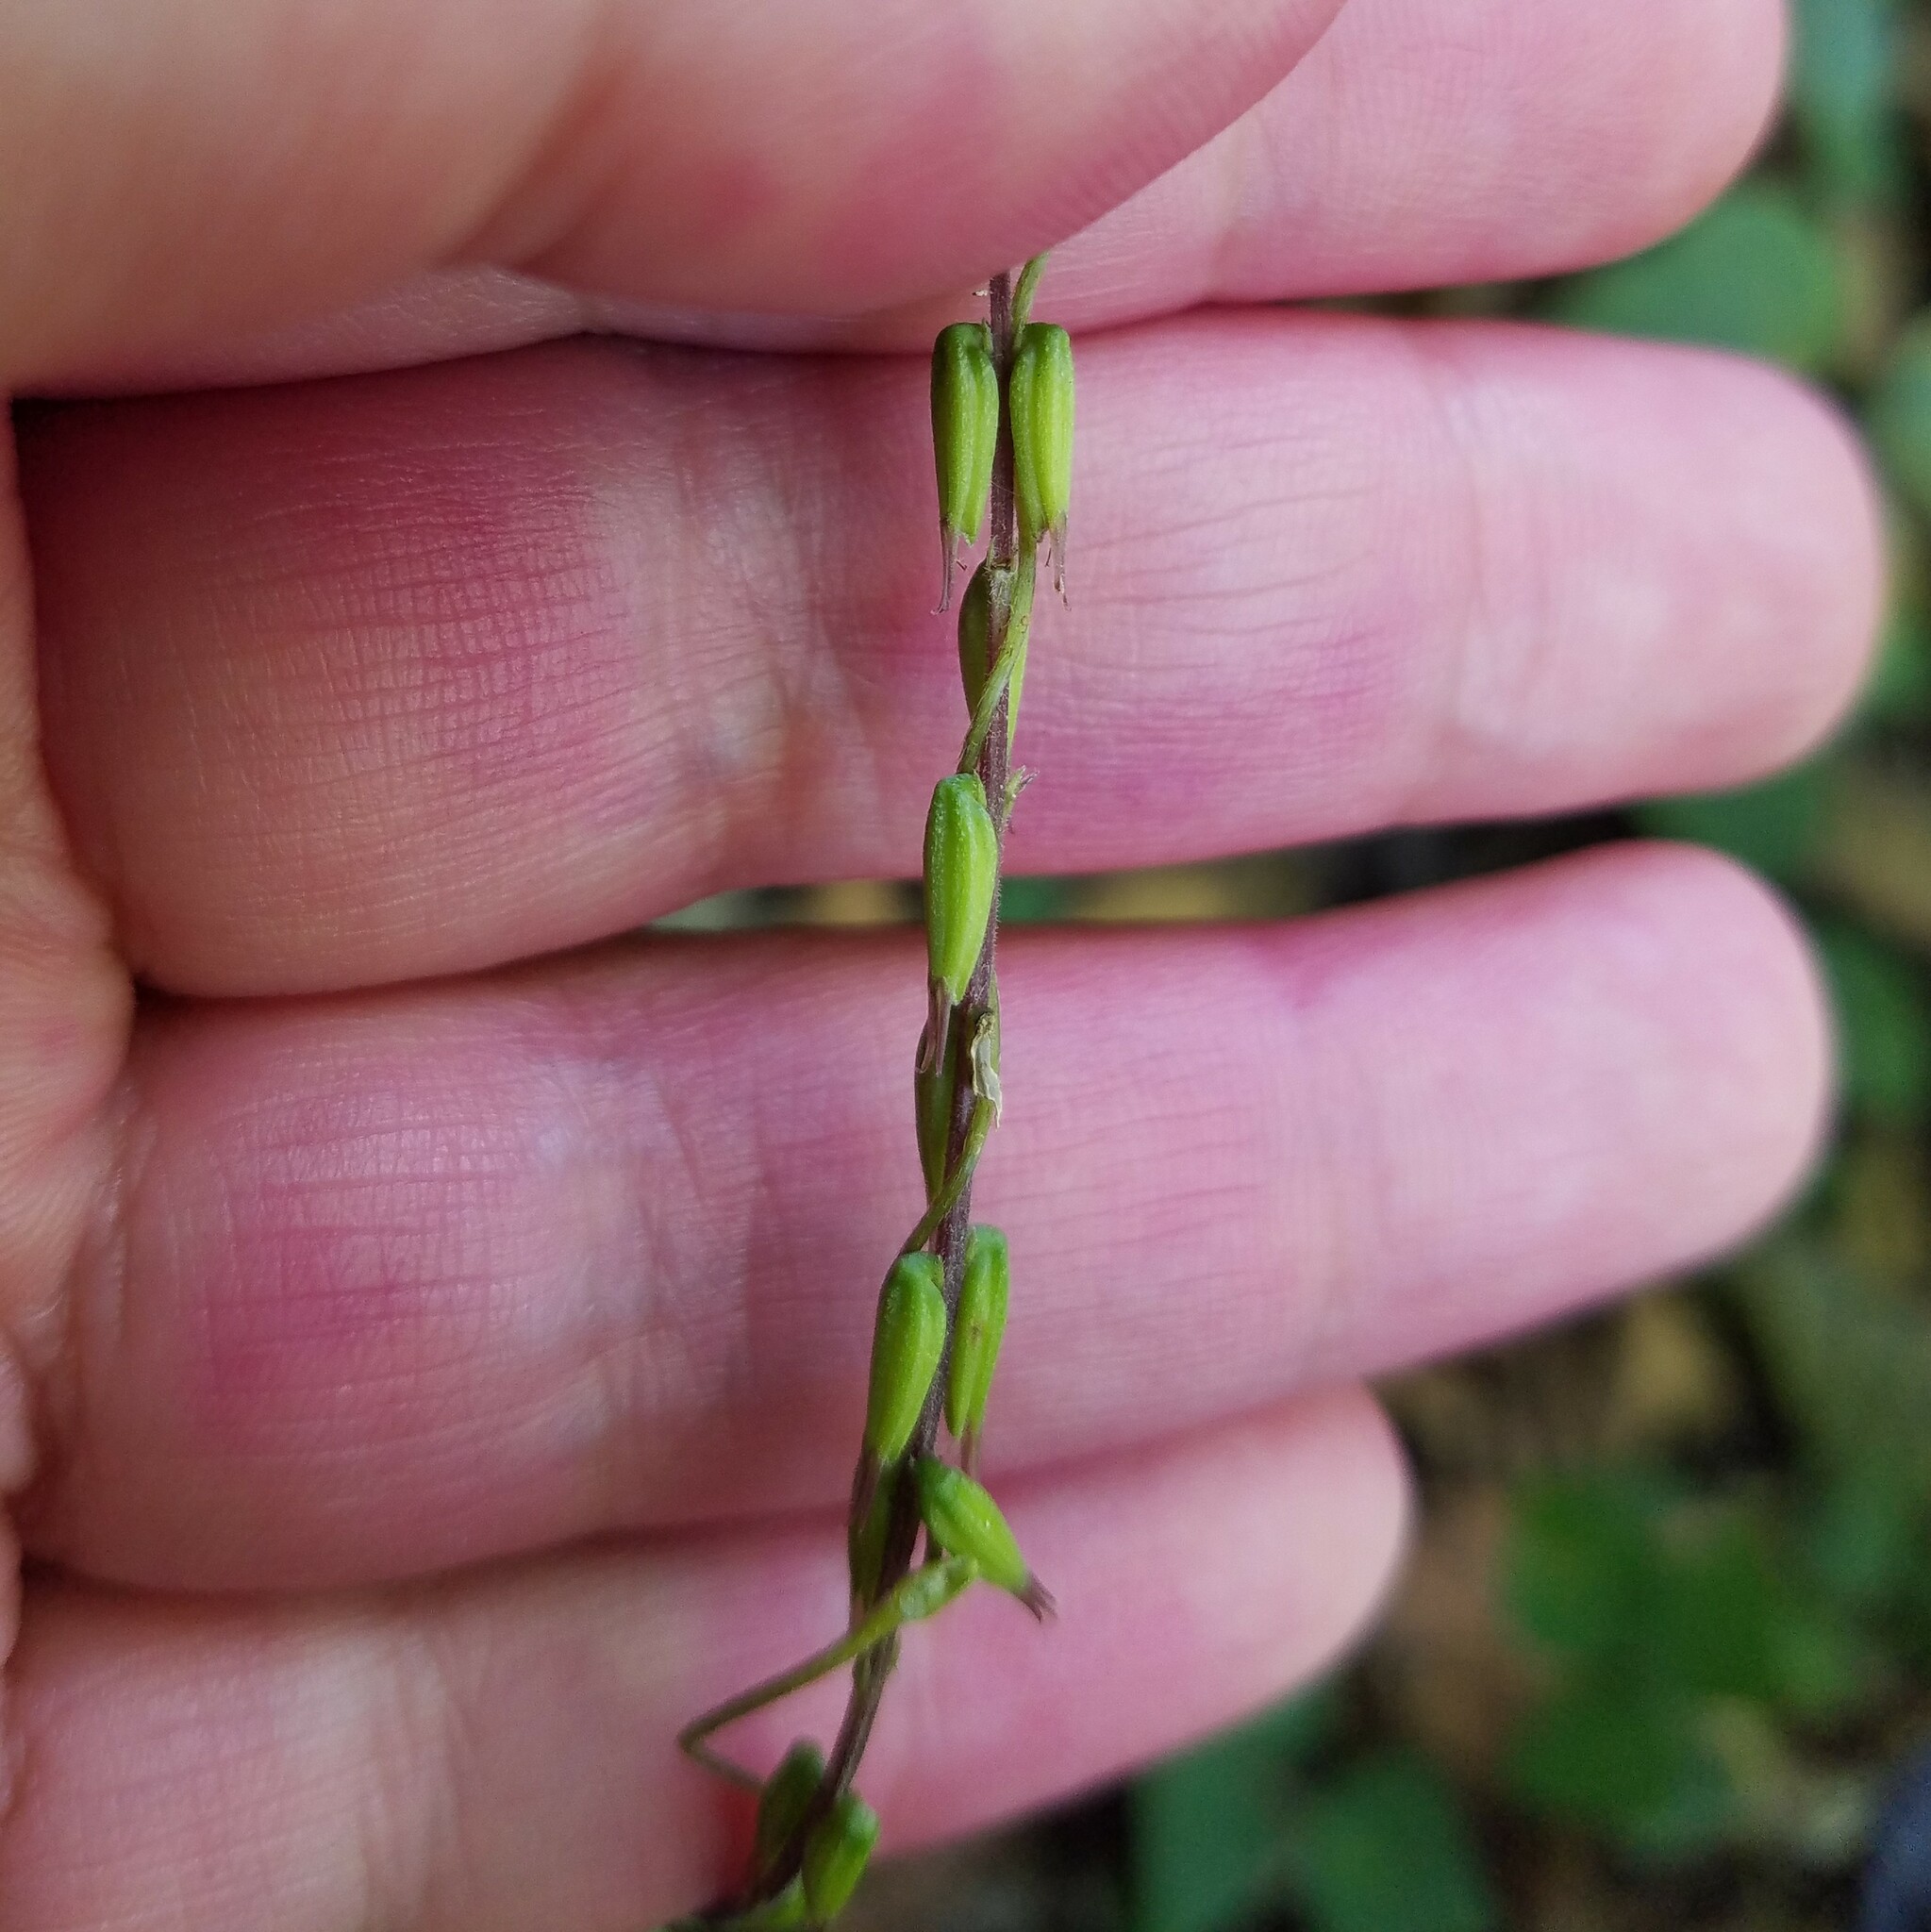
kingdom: Plantae
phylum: Tracheophyta
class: Magnoliopsida
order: Lamiales
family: Phrymaceae
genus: Phryma
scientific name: Phryma leptostachya
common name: American lopseed
